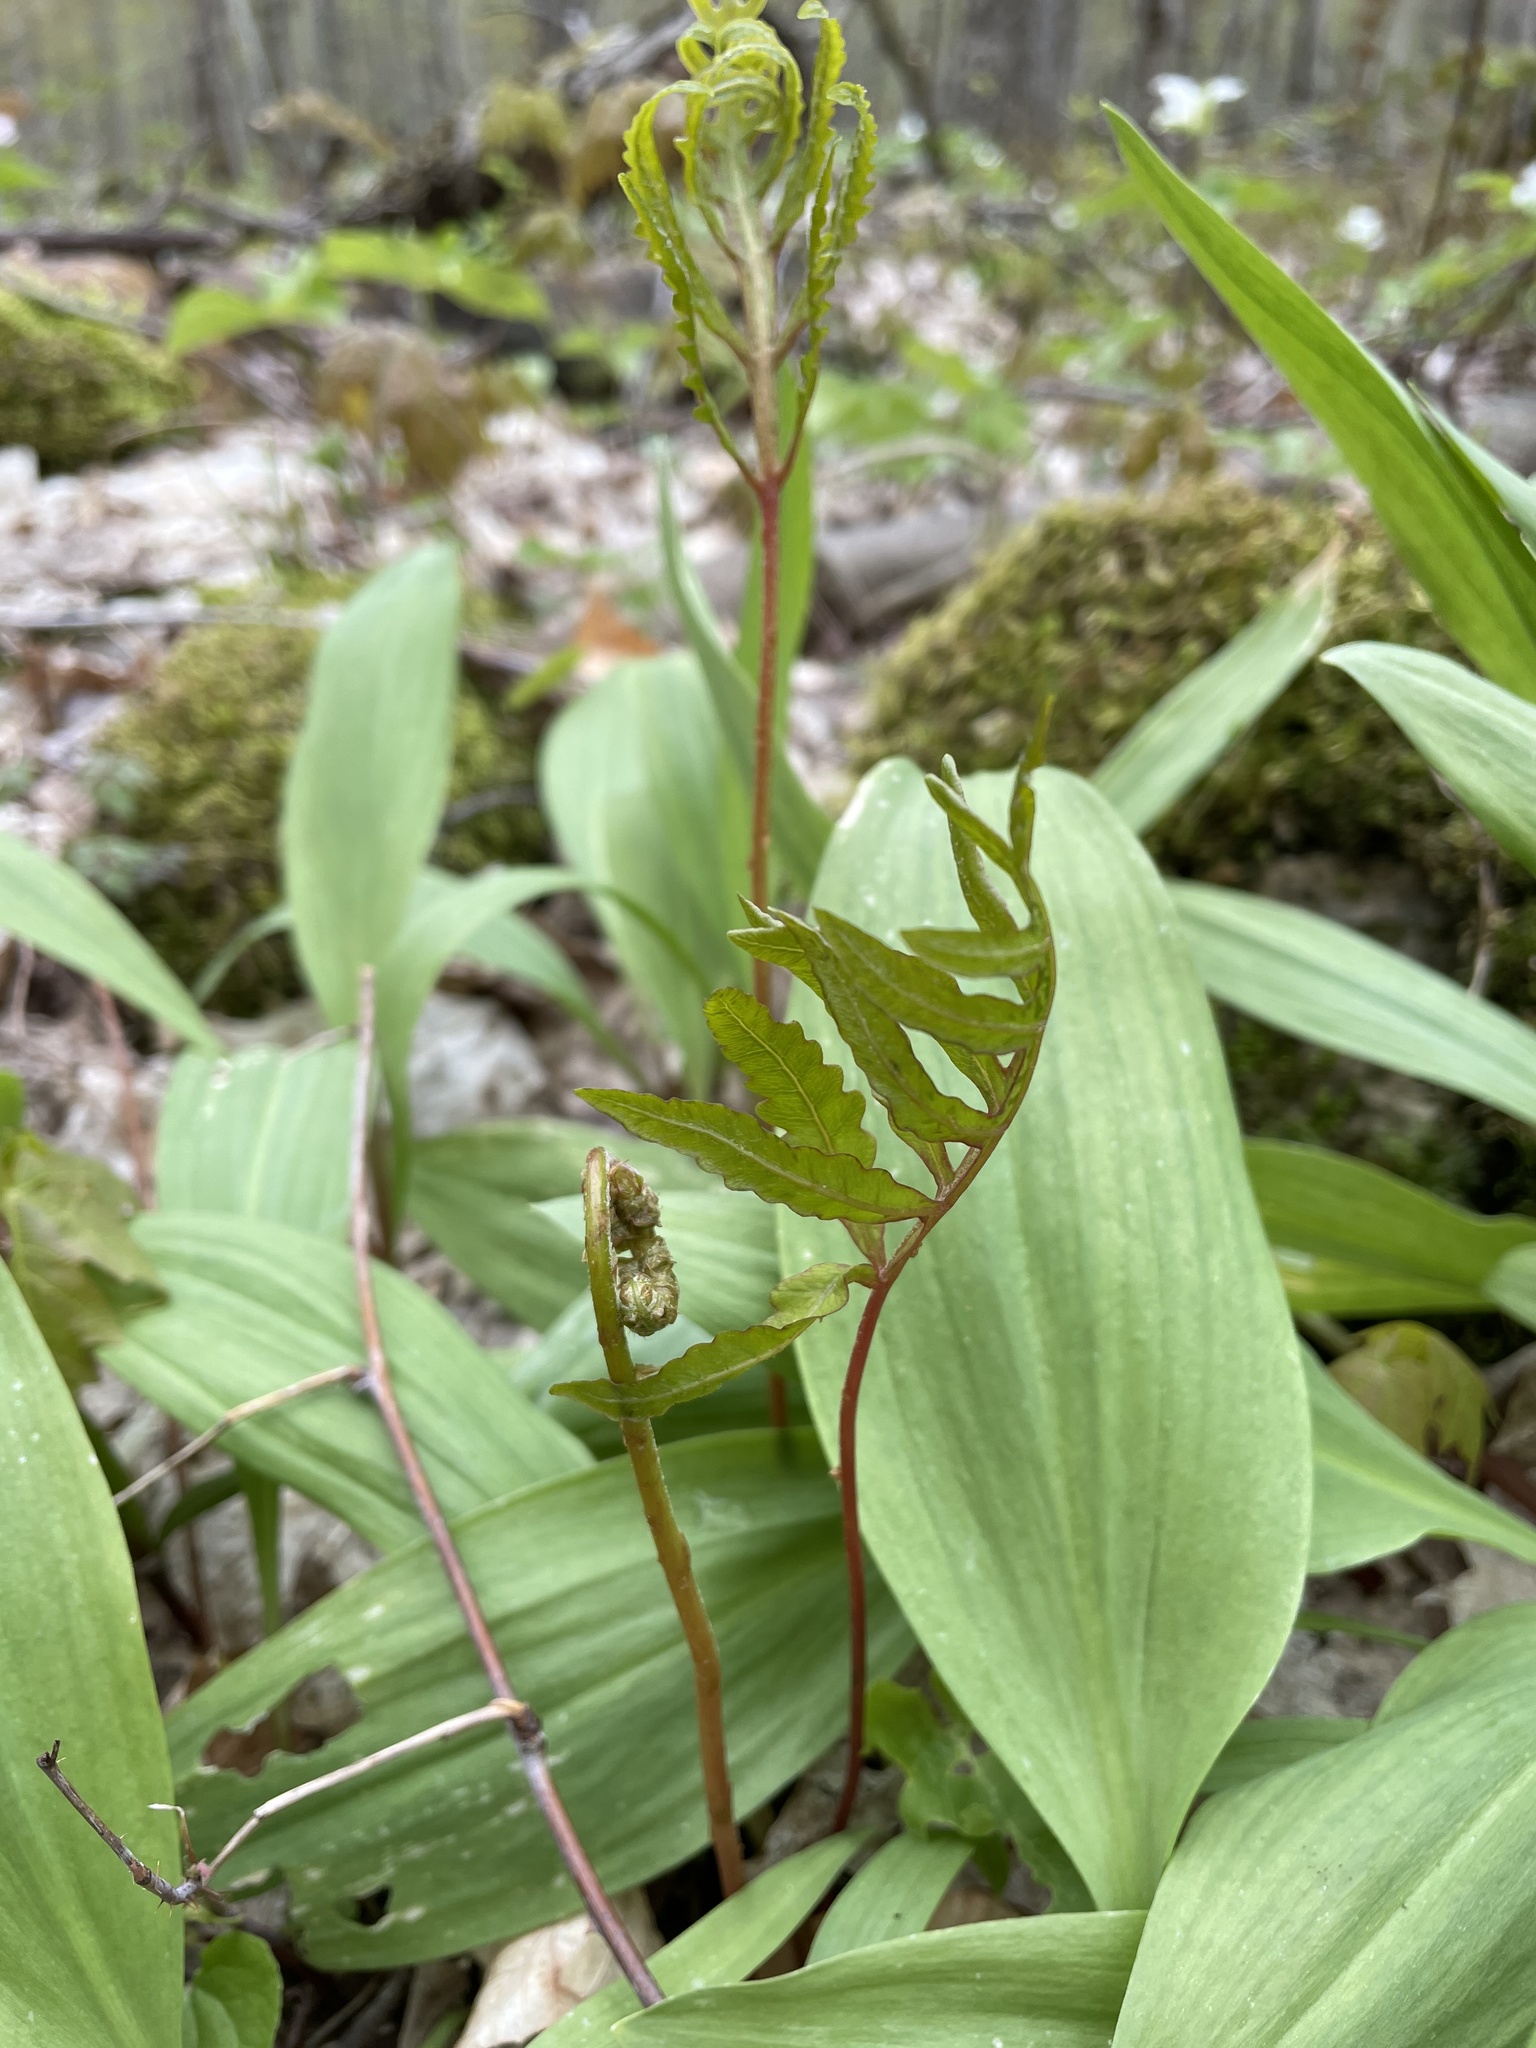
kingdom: Plantae
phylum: Tracheophyta
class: Polypodiopsida
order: Polypodiales
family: Onocleaceae
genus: Onoclea
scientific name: Onoclea sensibilis
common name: Sensitive fern
